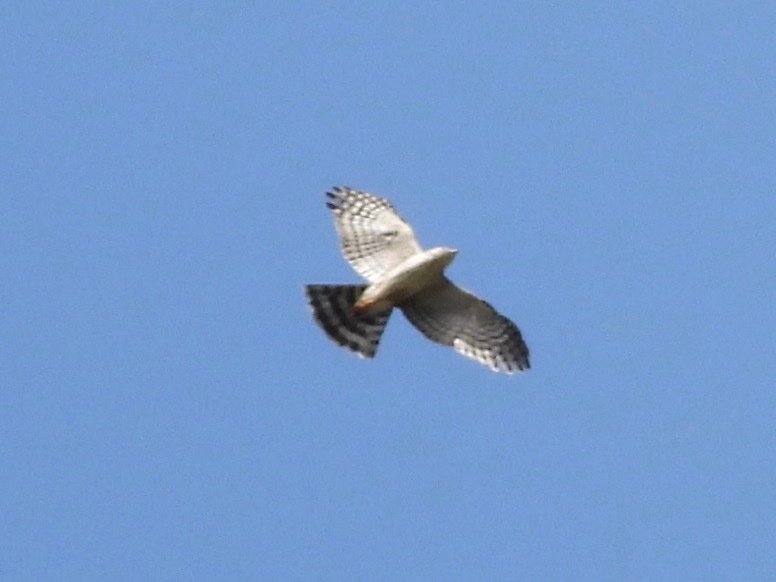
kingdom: Animalia
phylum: Chordata
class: Aves
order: Accipitriformes
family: Accipitridae
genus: Accipiter
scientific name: Accipiter striatus
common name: Sharp-shinned hawk
